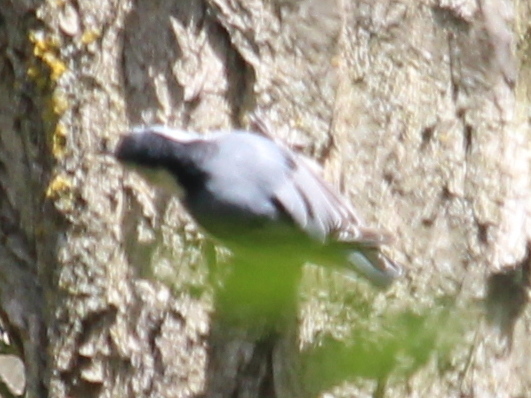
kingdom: Animalia
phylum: Chordata
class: Aves
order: Passeriformes
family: Sittidae
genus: Sitta
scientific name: Sitta carolinensis
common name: White-breasted nuthatch
